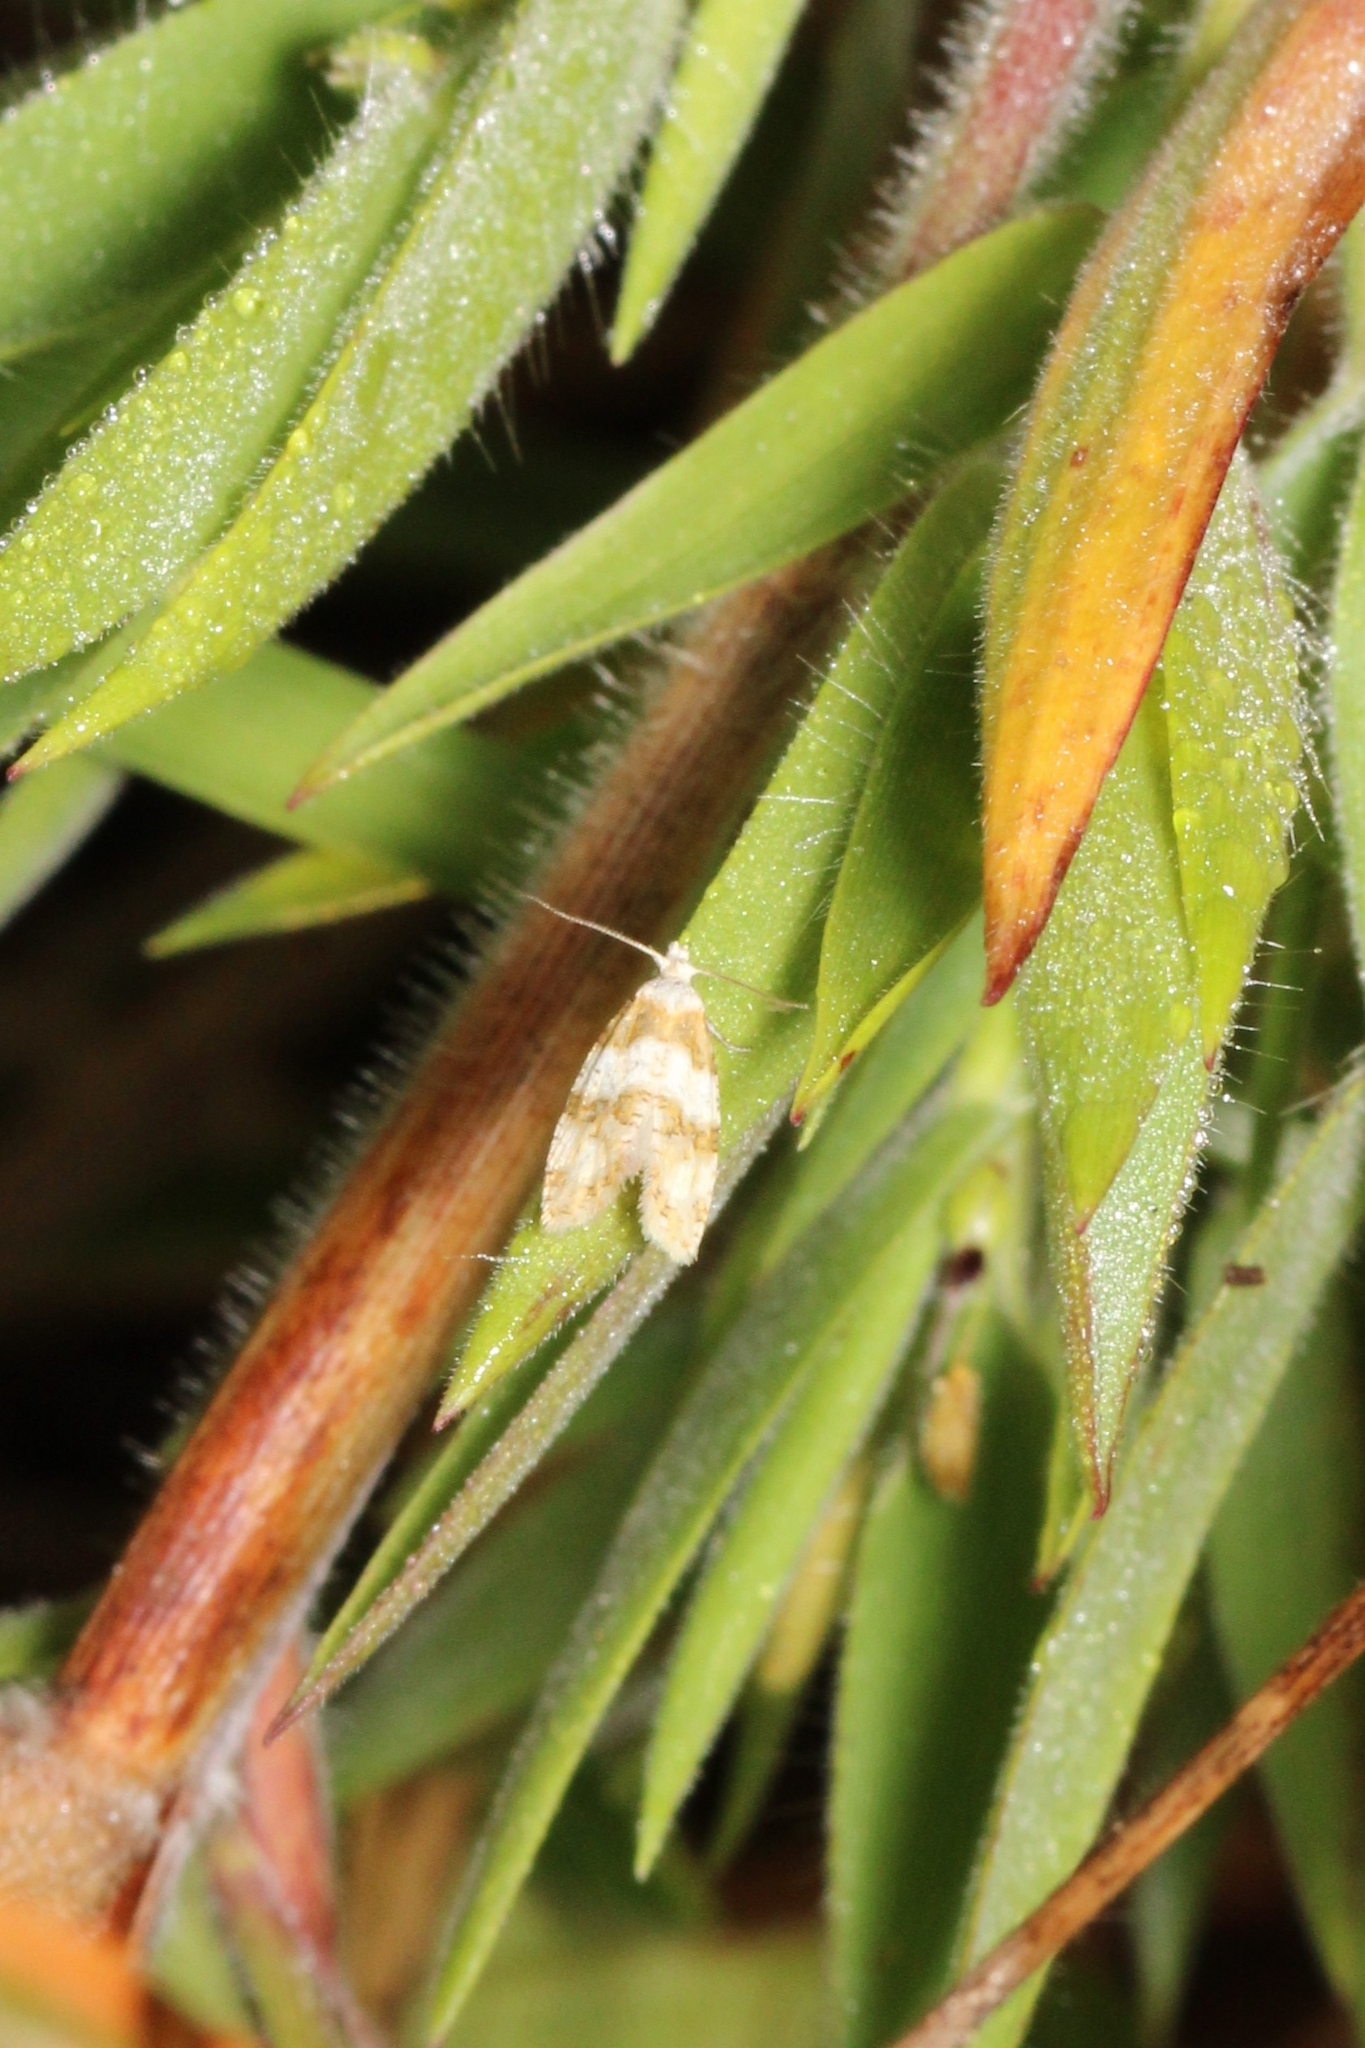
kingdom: Animalia
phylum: Arthropoda
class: Insecta
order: Lepidoptera
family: Tortricidae
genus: Aethes
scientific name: Aethes argentilimitana
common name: Silver-bordered aethes
